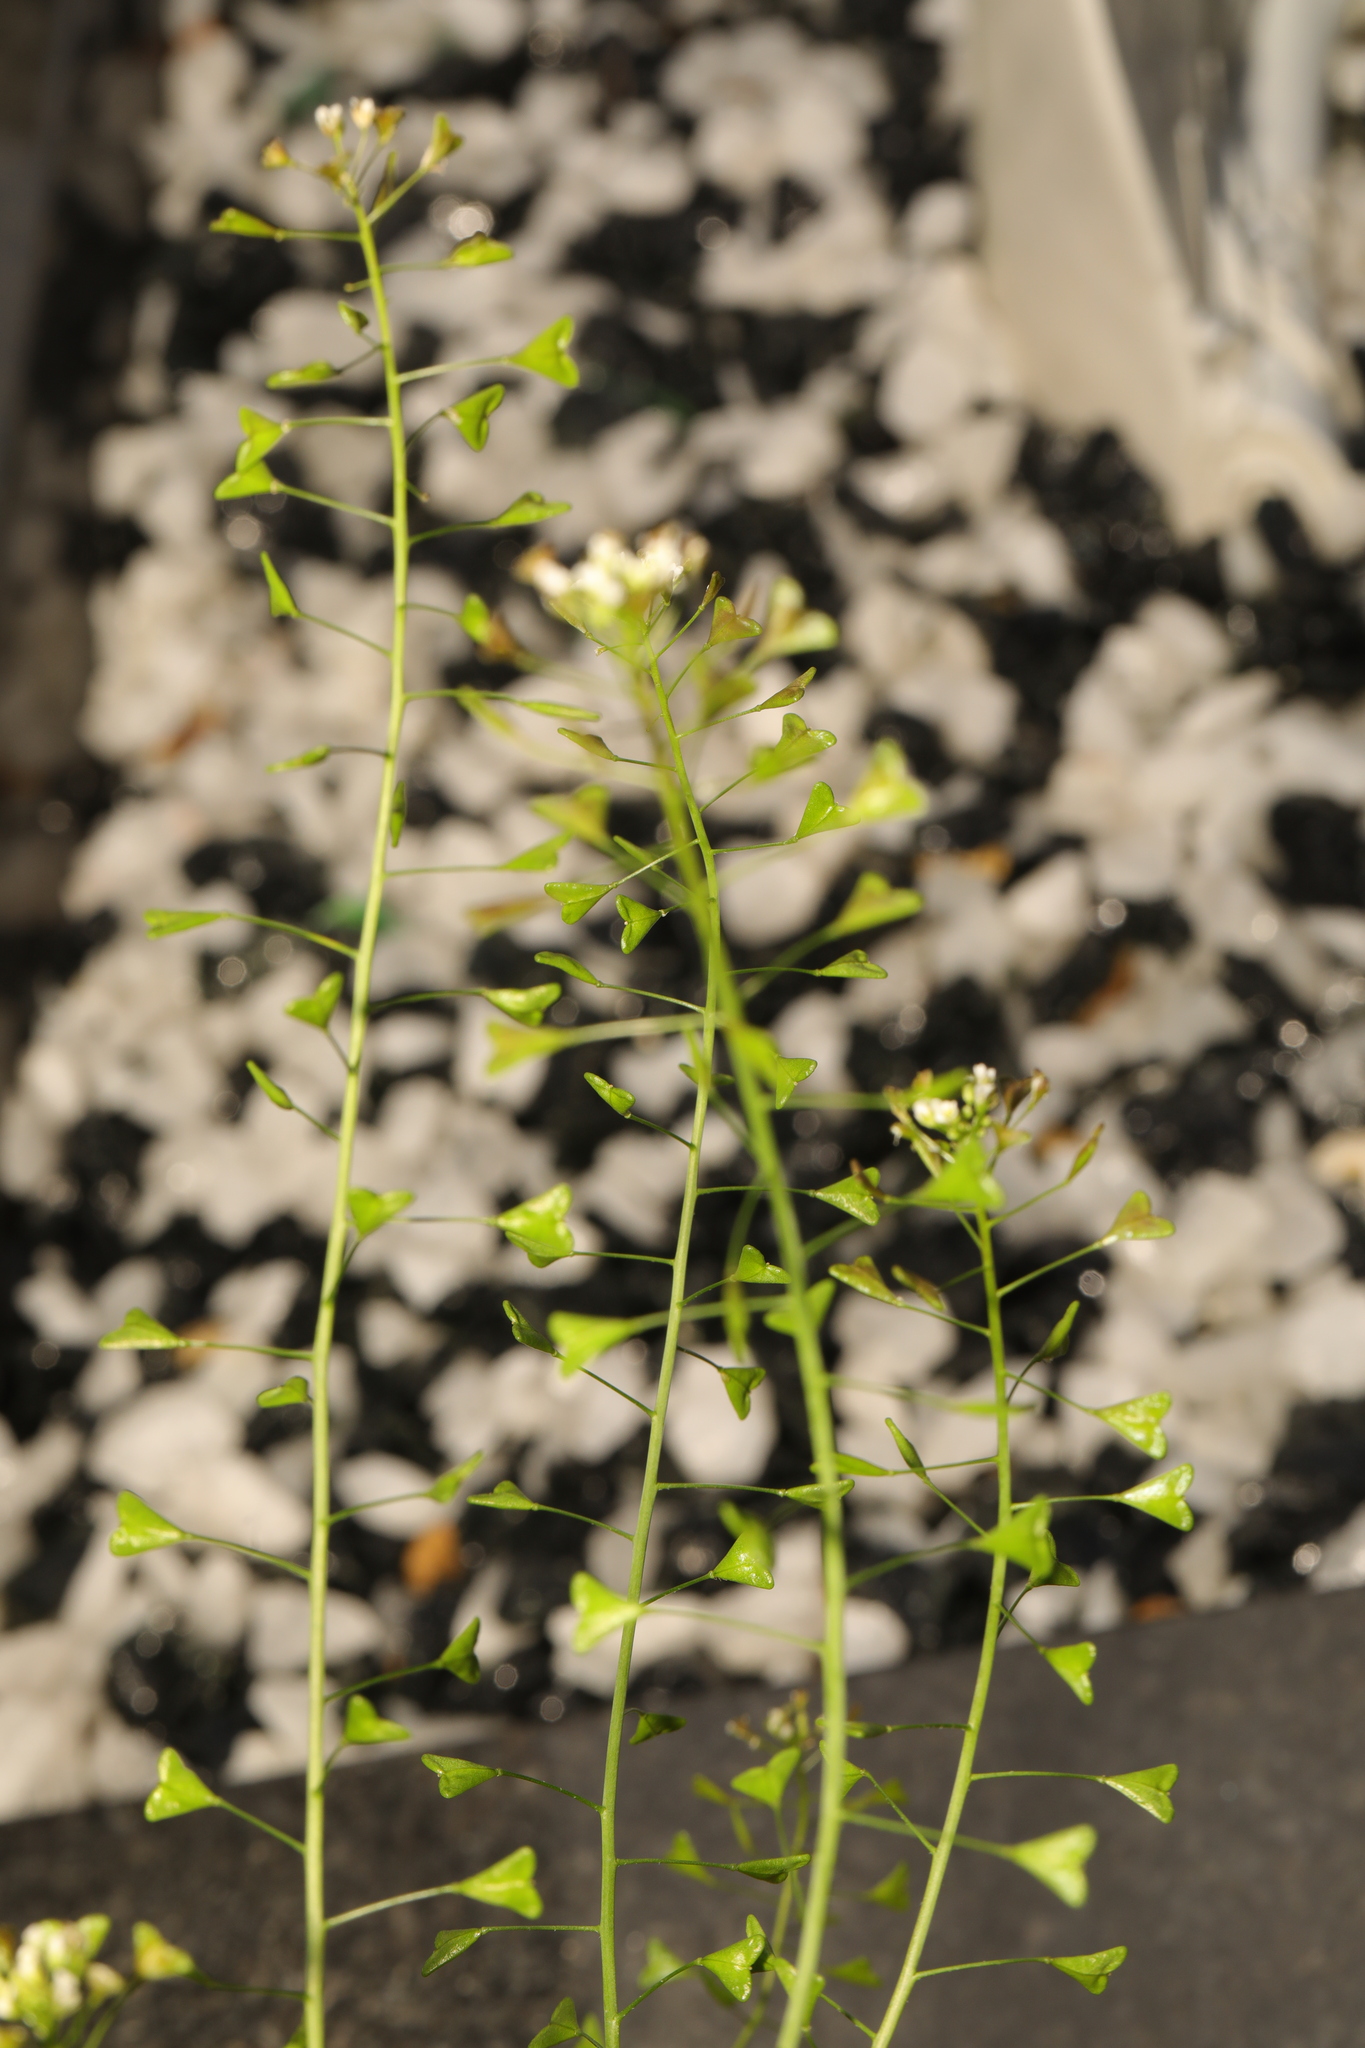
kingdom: Plantae
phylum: Tracheophyta
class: Magnoliopsida
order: Brassicales
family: Brassicaceae
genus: Capsella
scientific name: Capsella bursa-pastoris
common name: Shepherd's purse
